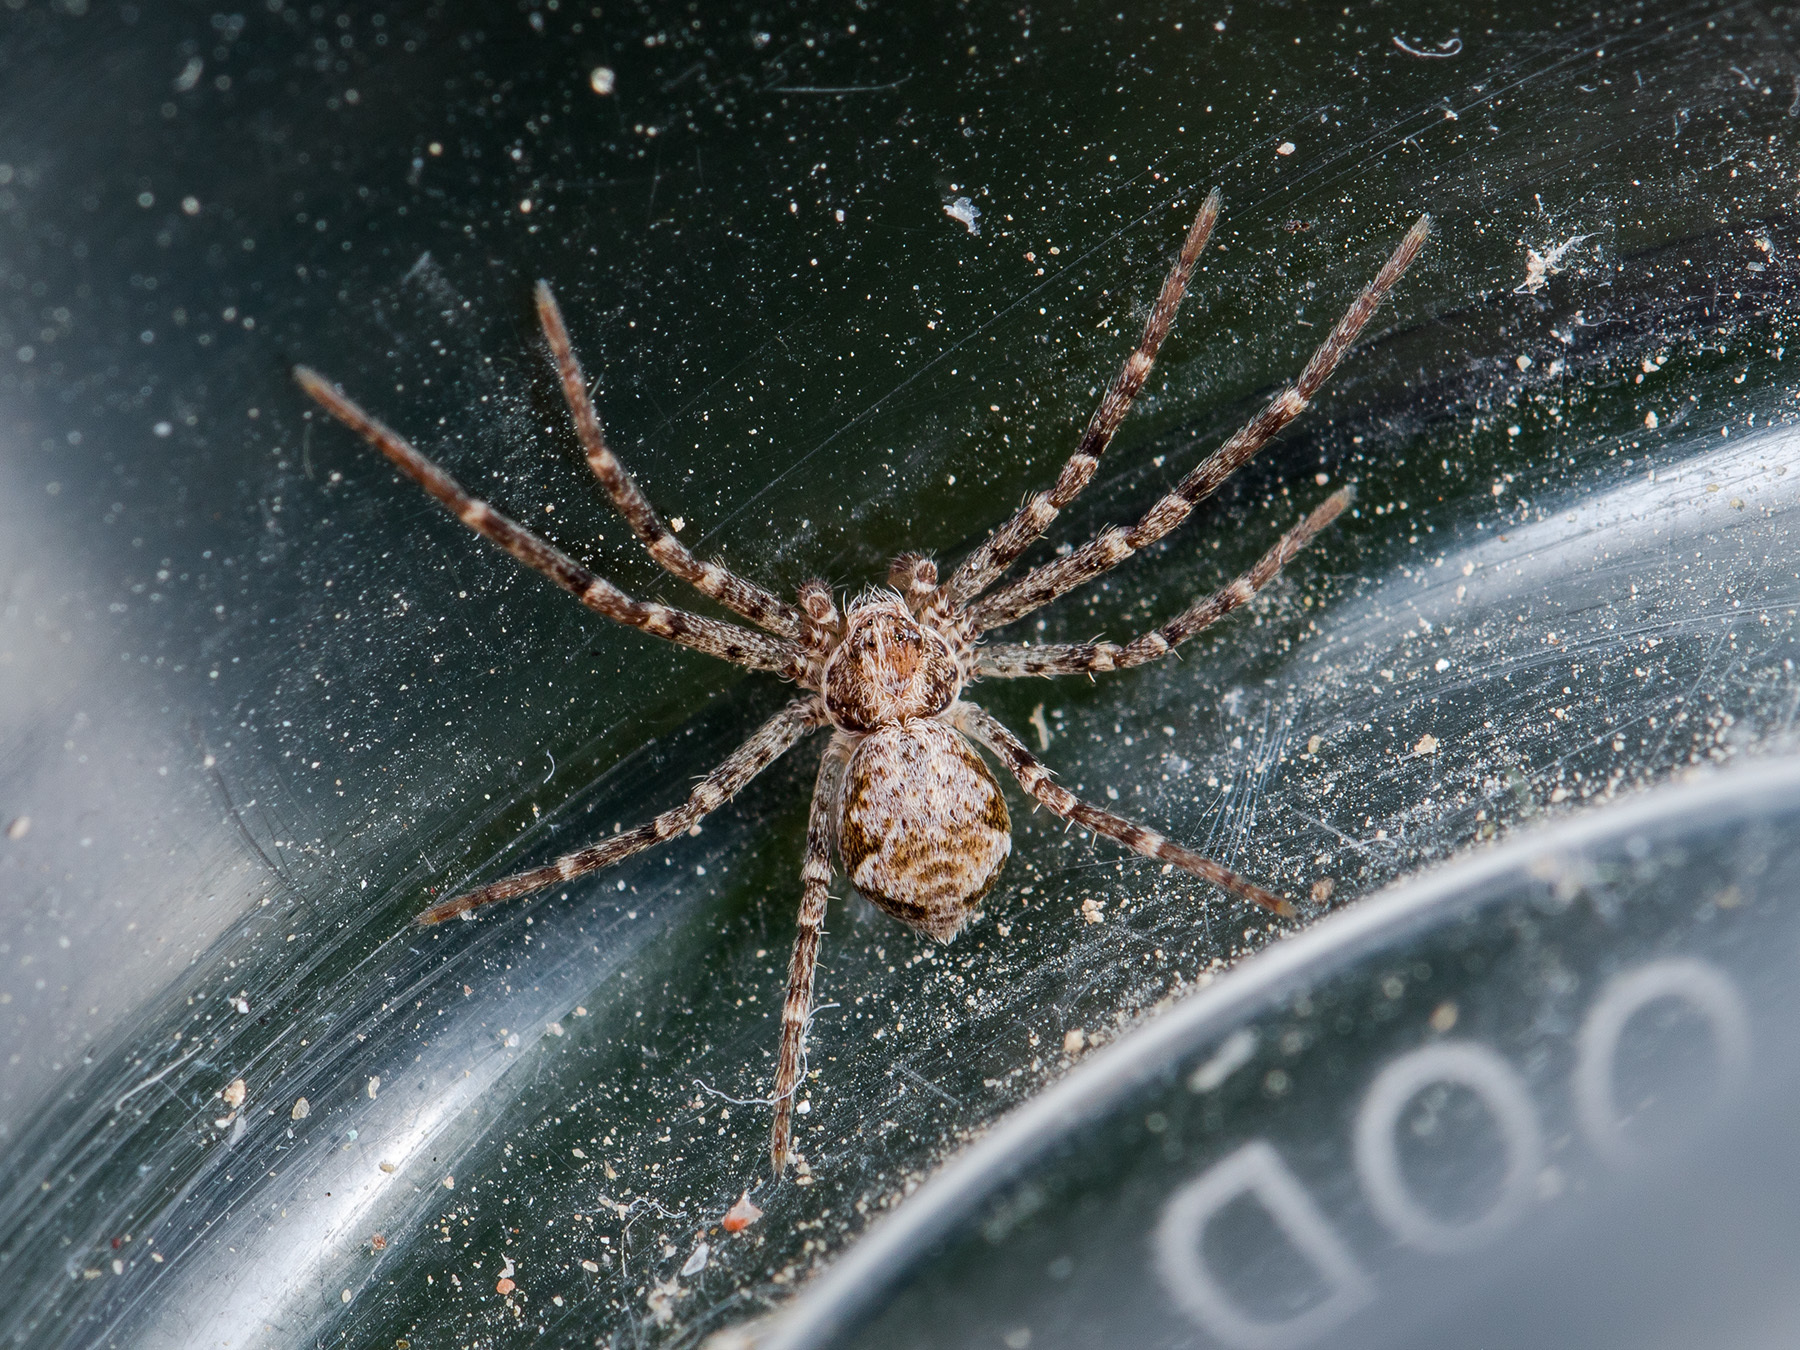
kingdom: Animalia
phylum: Arthropoda
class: Arachnida
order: Araneae
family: Philodromidae
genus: Rhysodromus
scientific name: Rhysodromus pictus
